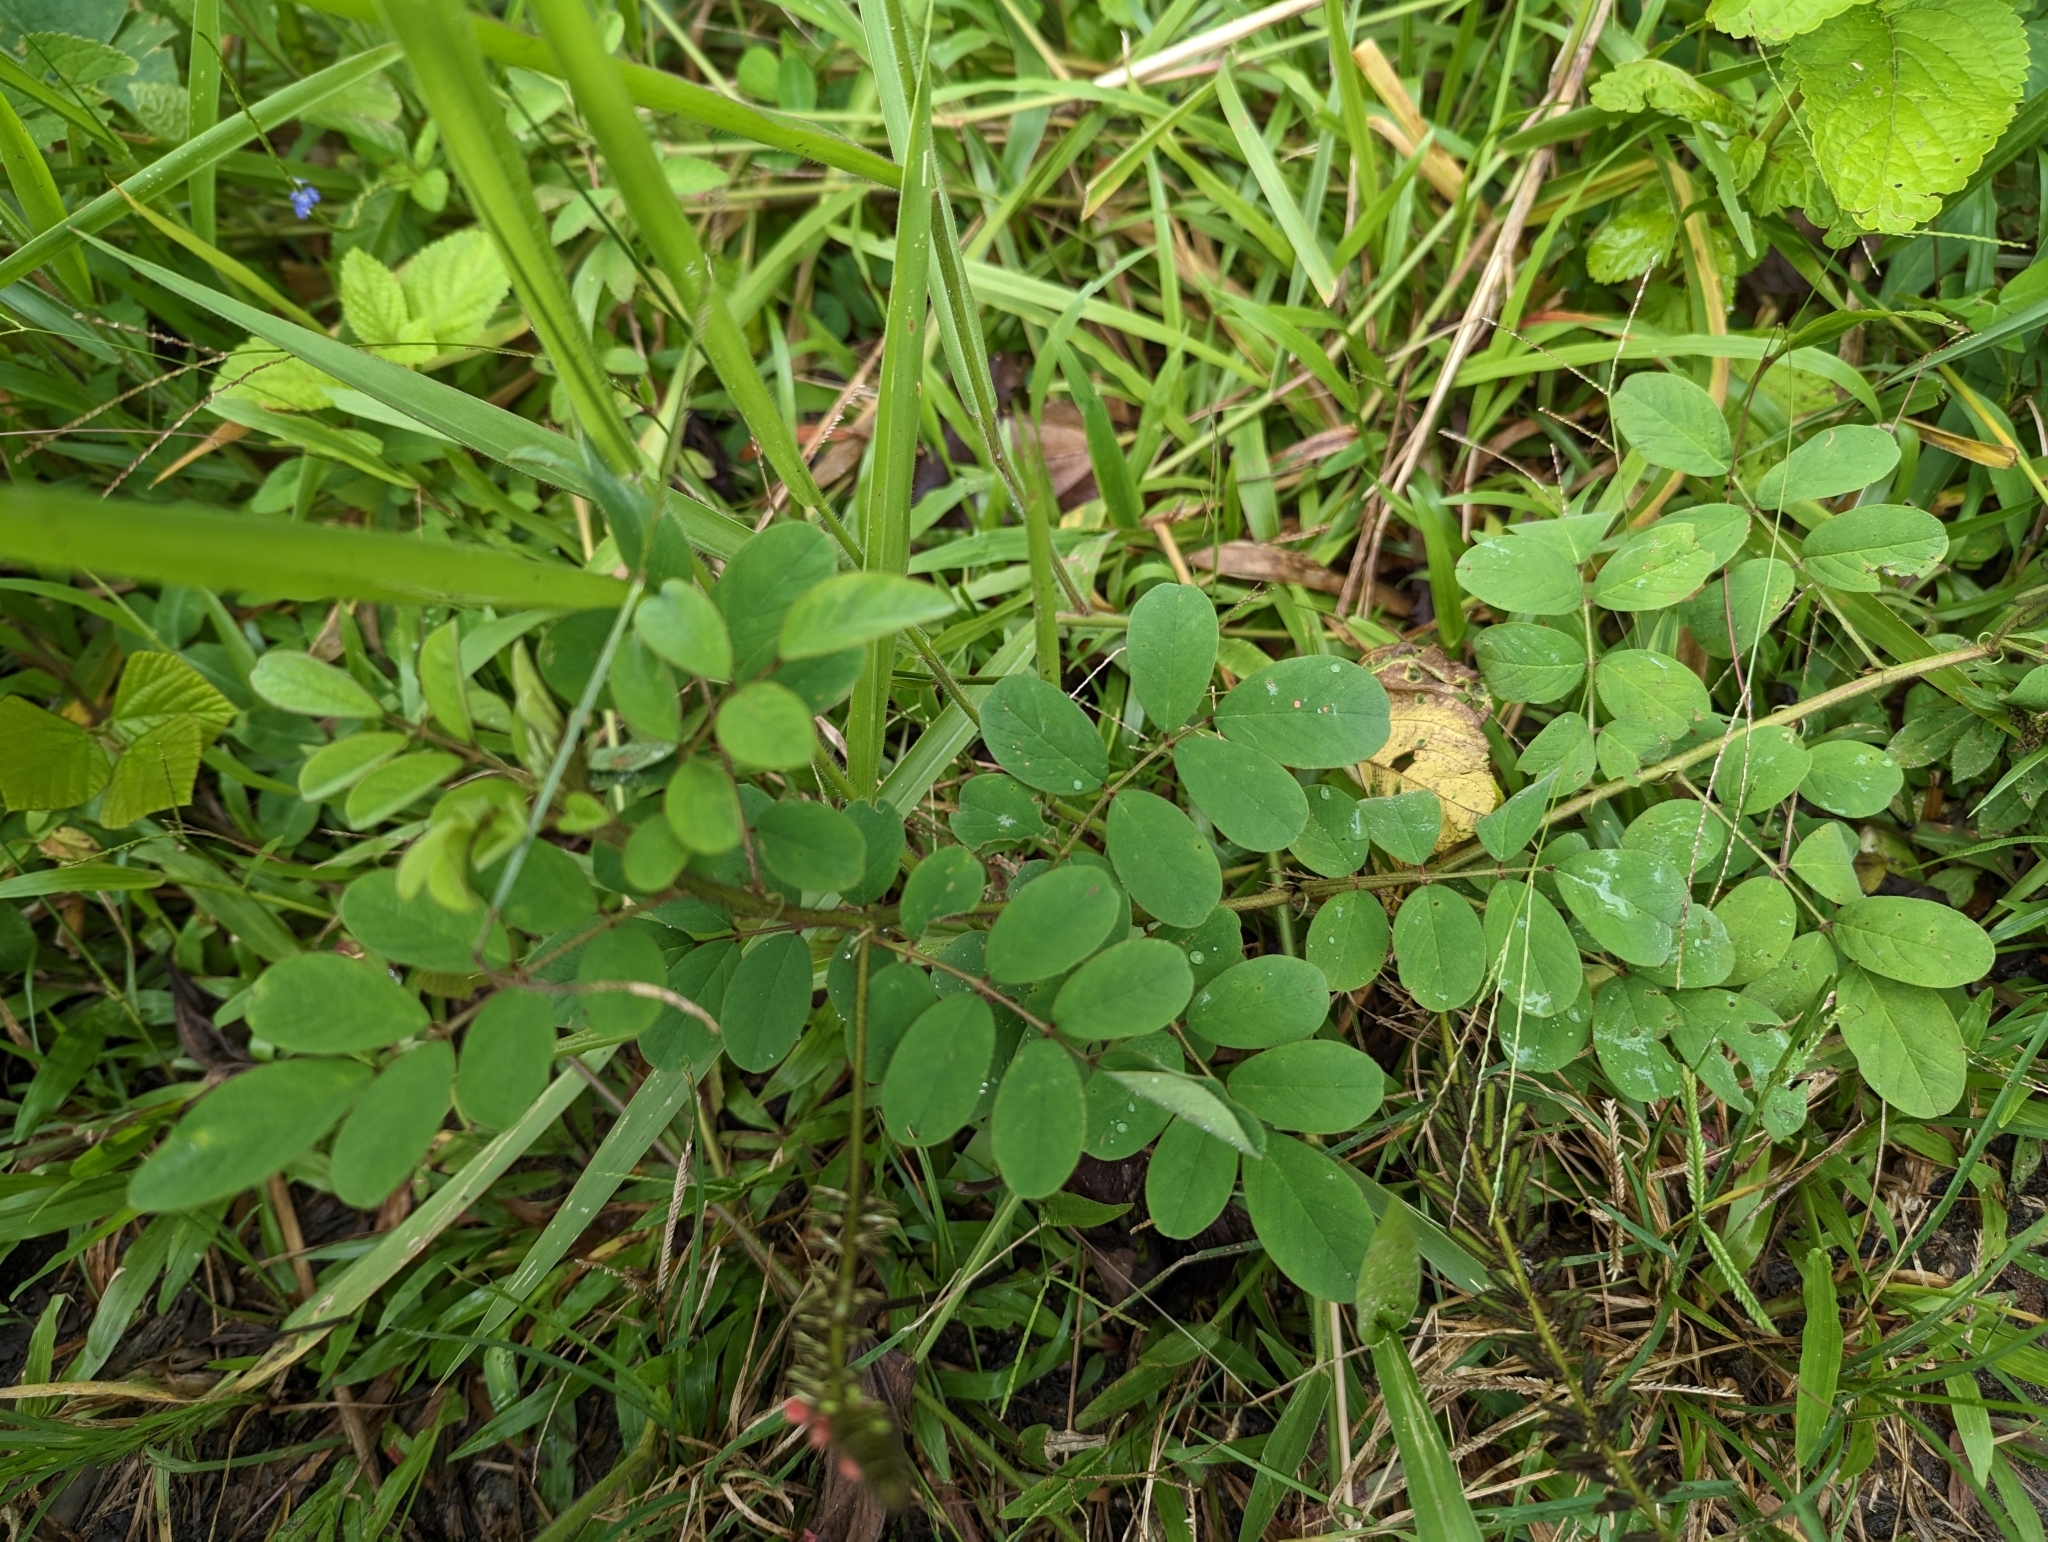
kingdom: Plantae
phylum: Tracheophyta
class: Magnoliopsida
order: Fabales
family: Fabaceae
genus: Indigofera
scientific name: Indigofera hirsuta
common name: Hairy indigo
